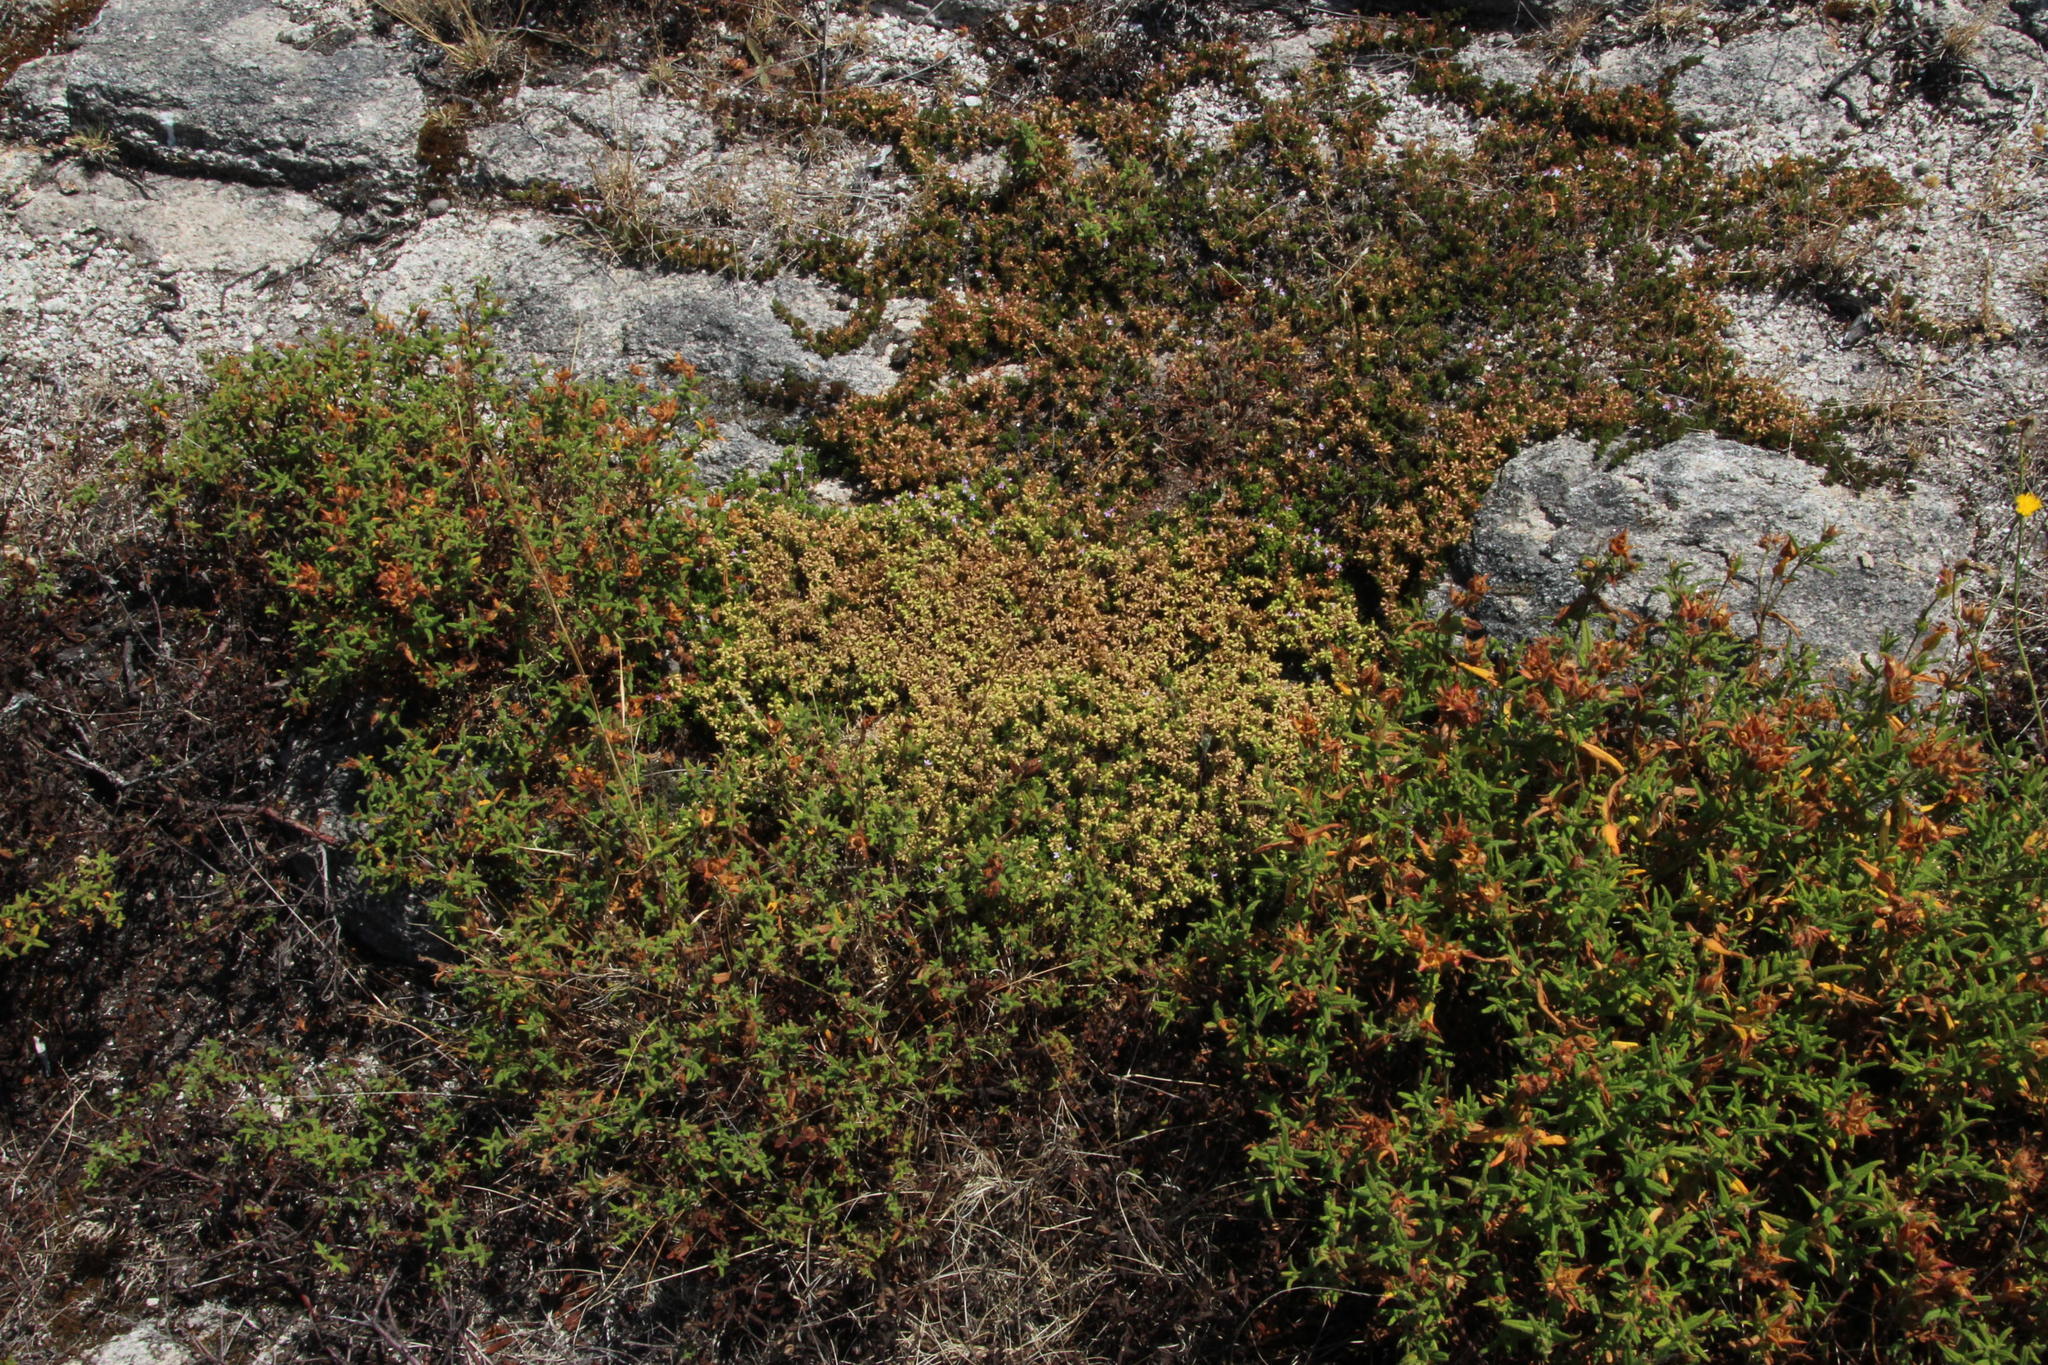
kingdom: Plantae
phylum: Tracheophyta
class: Magnoliopsida
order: Lamiales
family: Lamiaceae
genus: Thymus
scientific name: Thymus caespititius
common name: Azores thyme
